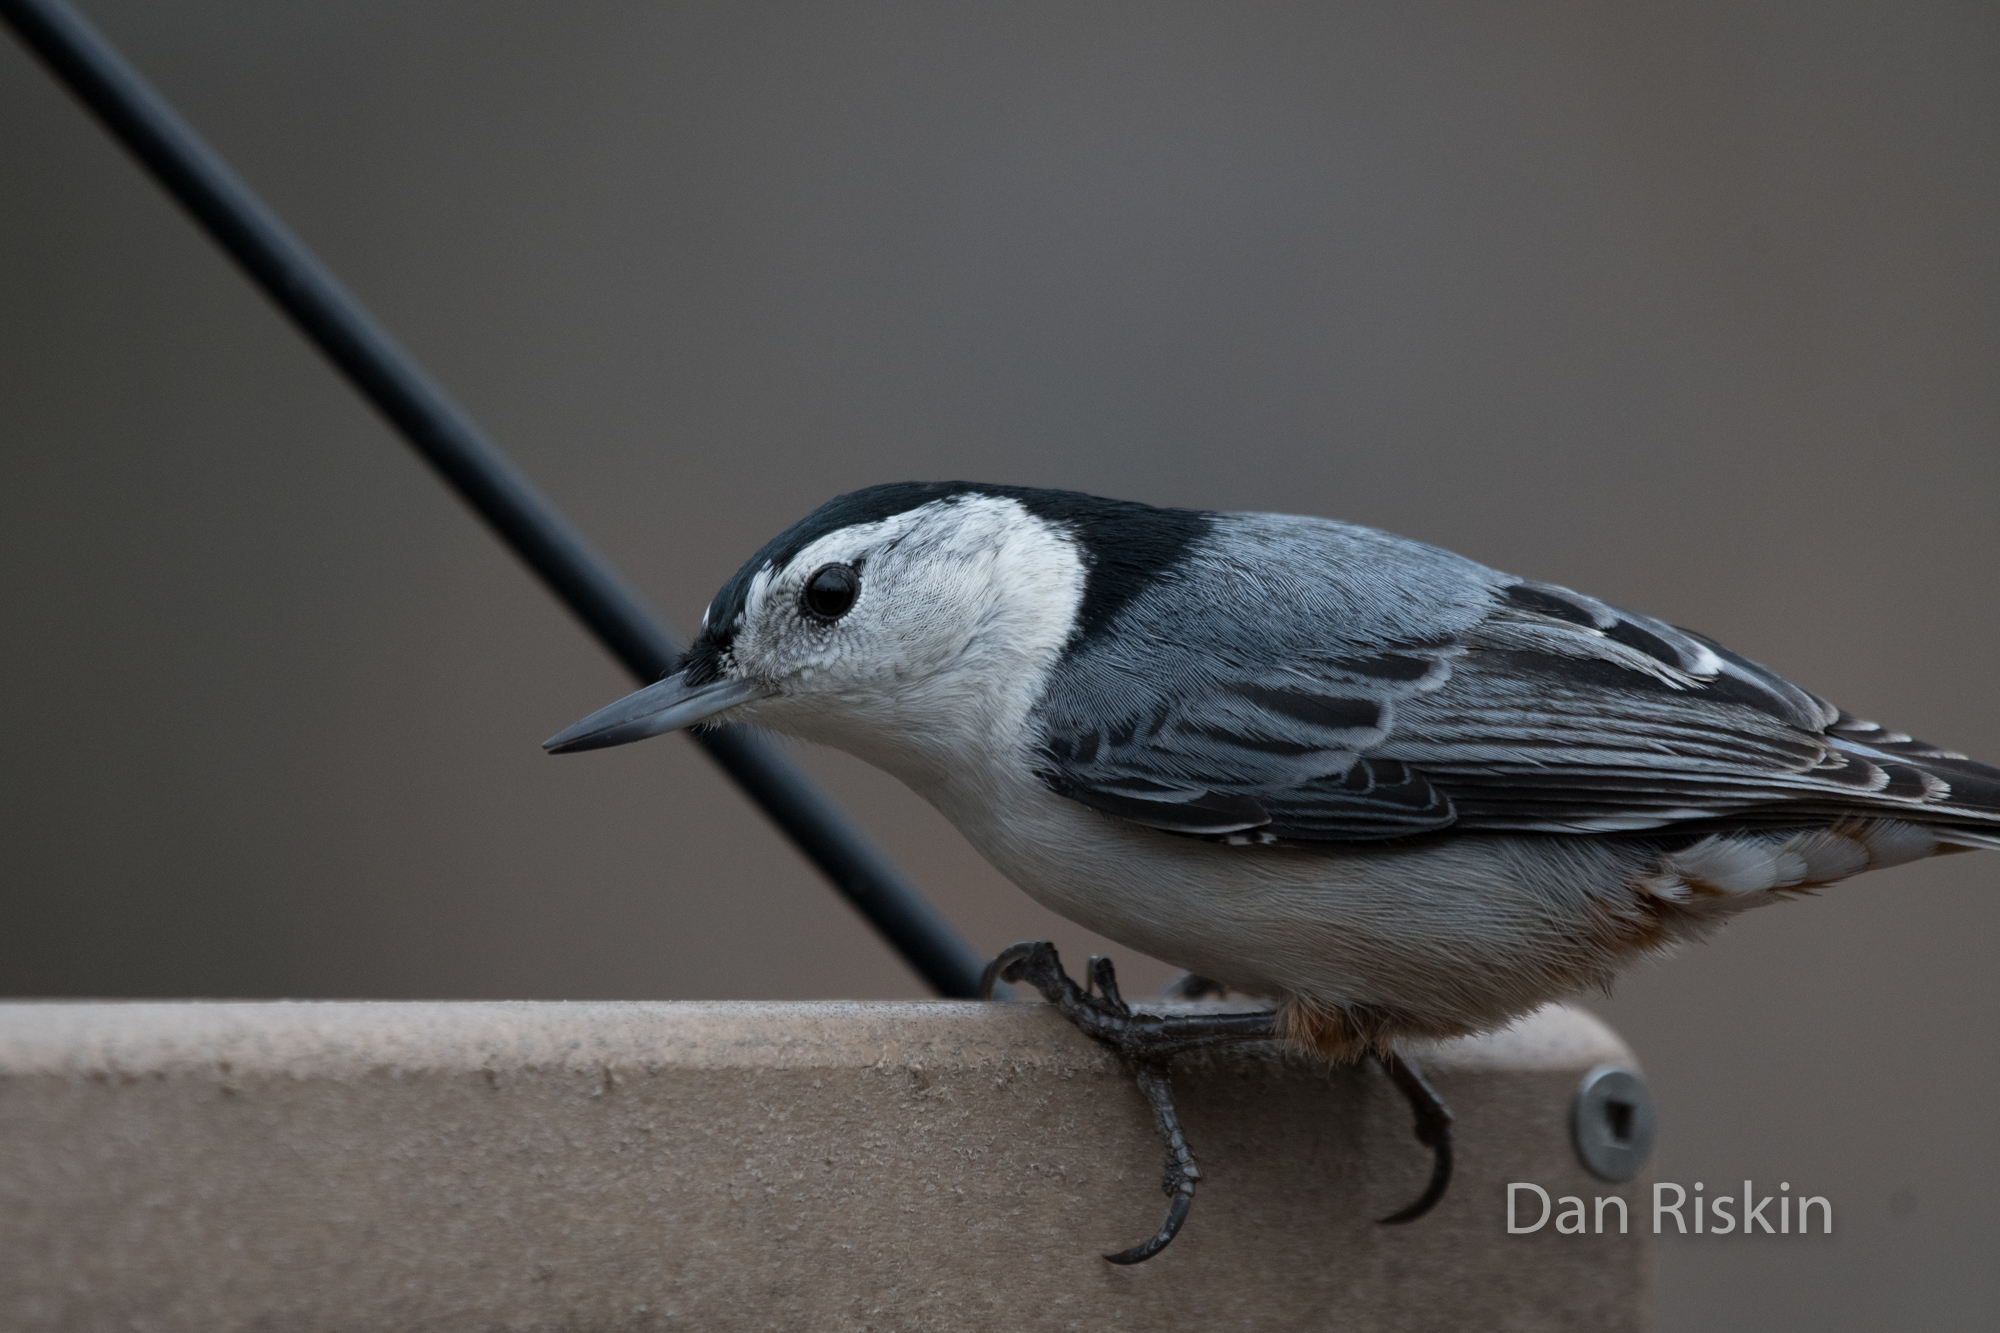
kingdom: Animalia
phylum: Chordata
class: Aves
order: Passeriformes
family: Sittidae
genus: Sitta
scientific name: Sitta carolinensis
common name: White-breasted nuthatch
